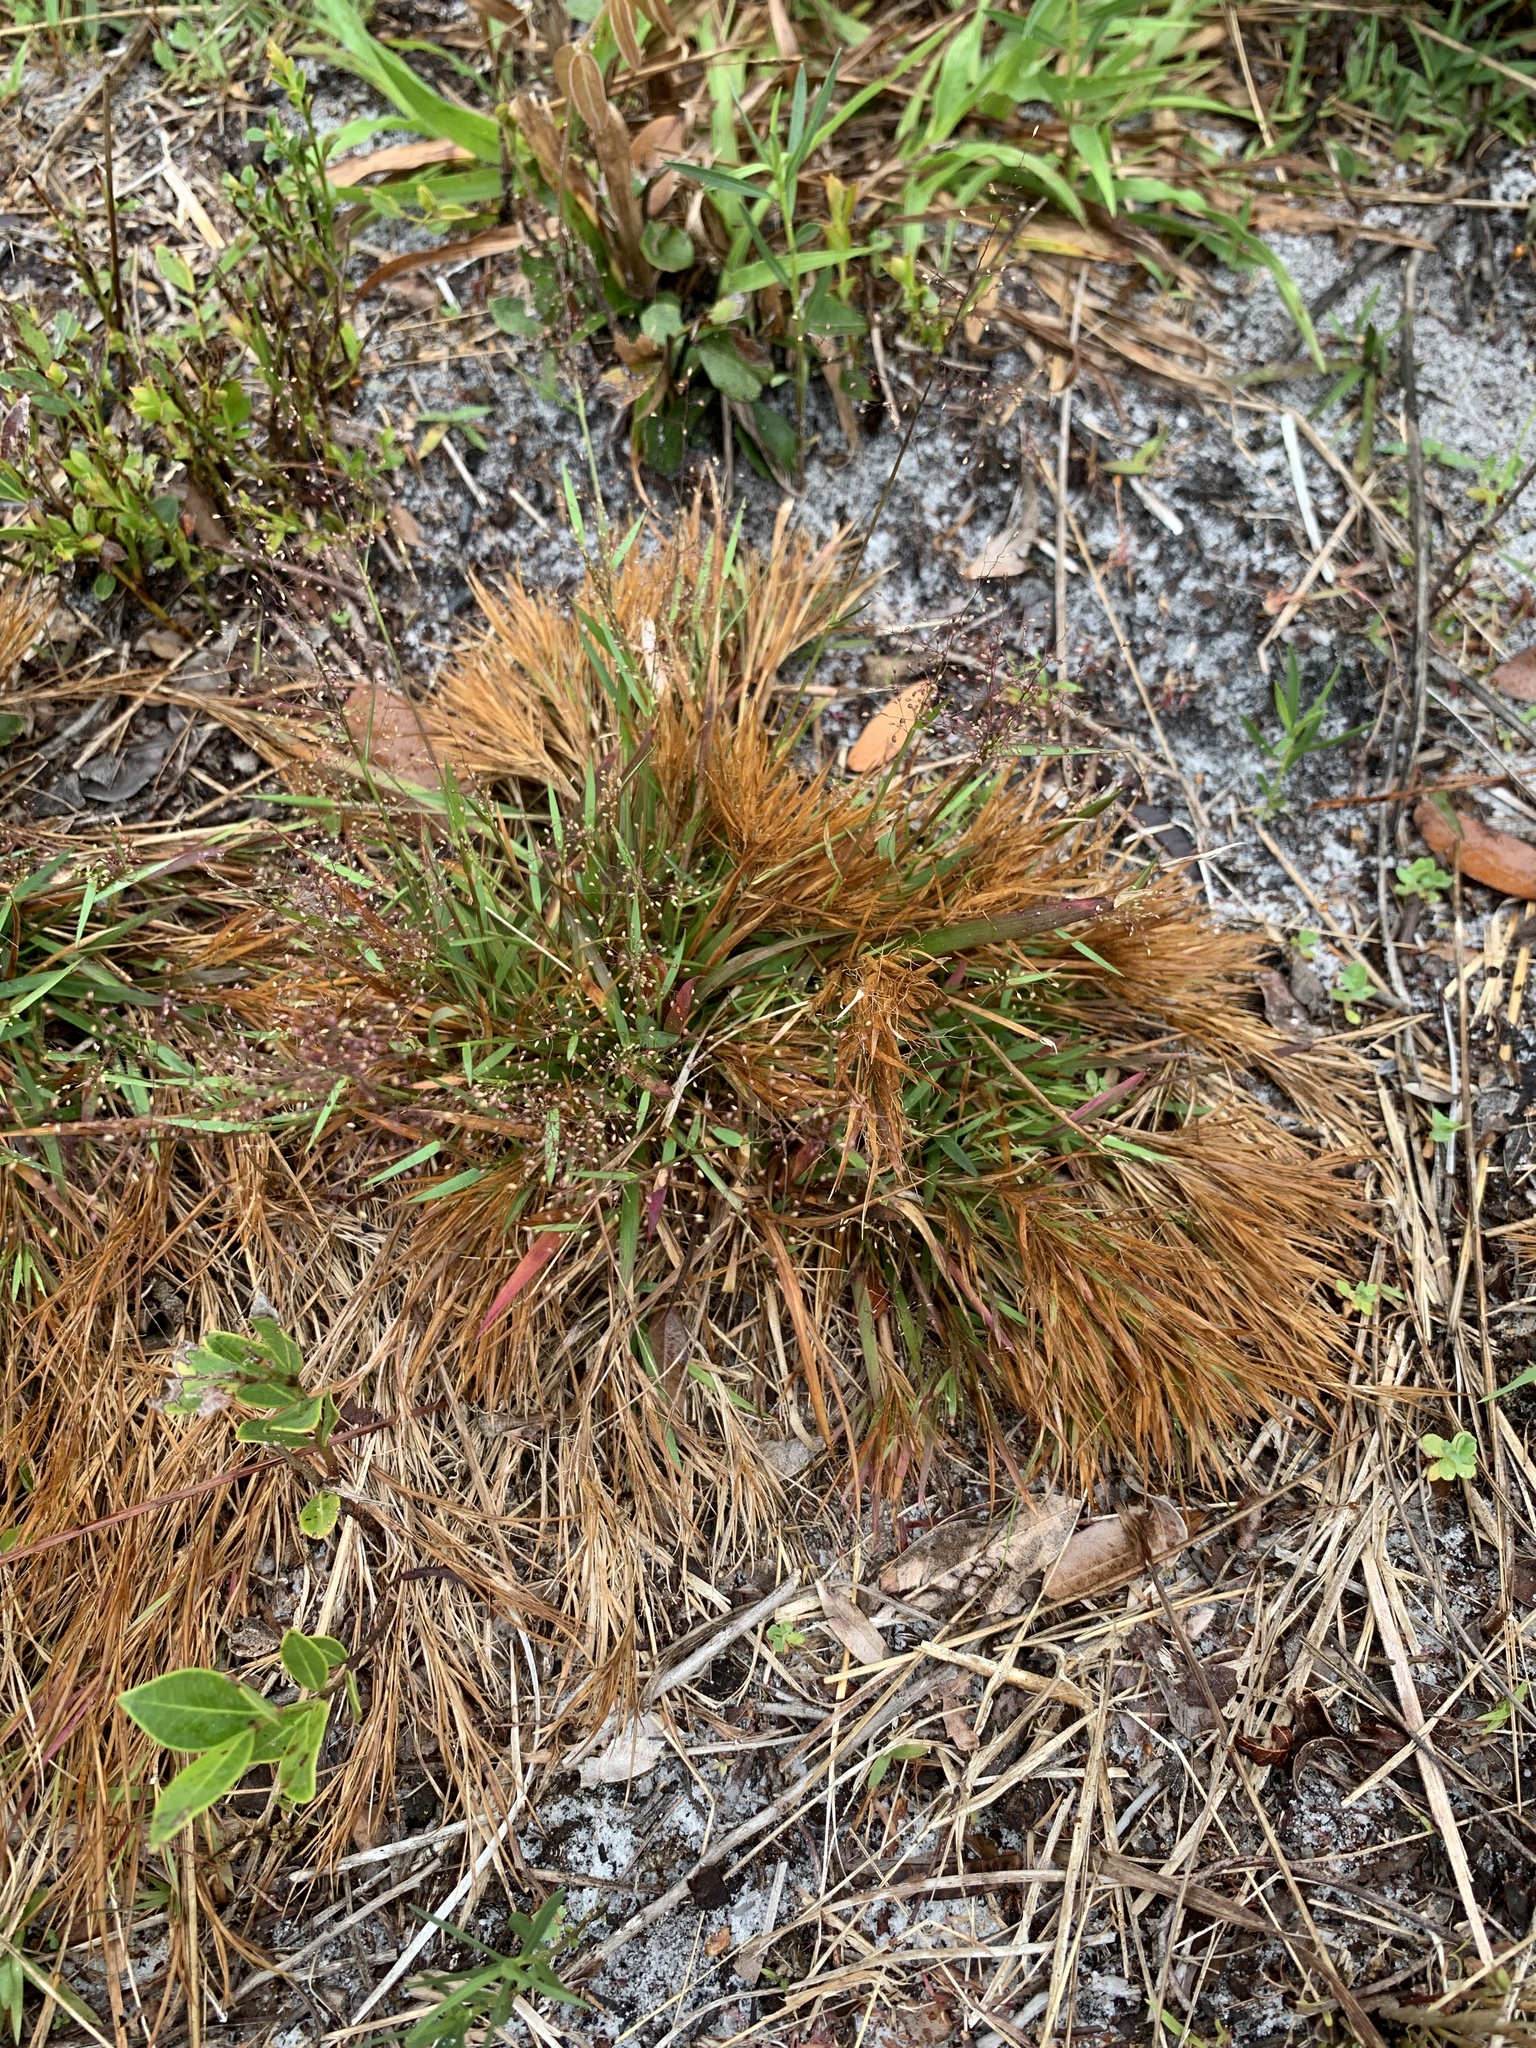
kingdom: Plantae
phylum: Tracheophyta
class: Liliopsida
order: Poales
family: Poaceae
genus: Dichanthelium
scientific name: Dichanthelium chamaelonche
